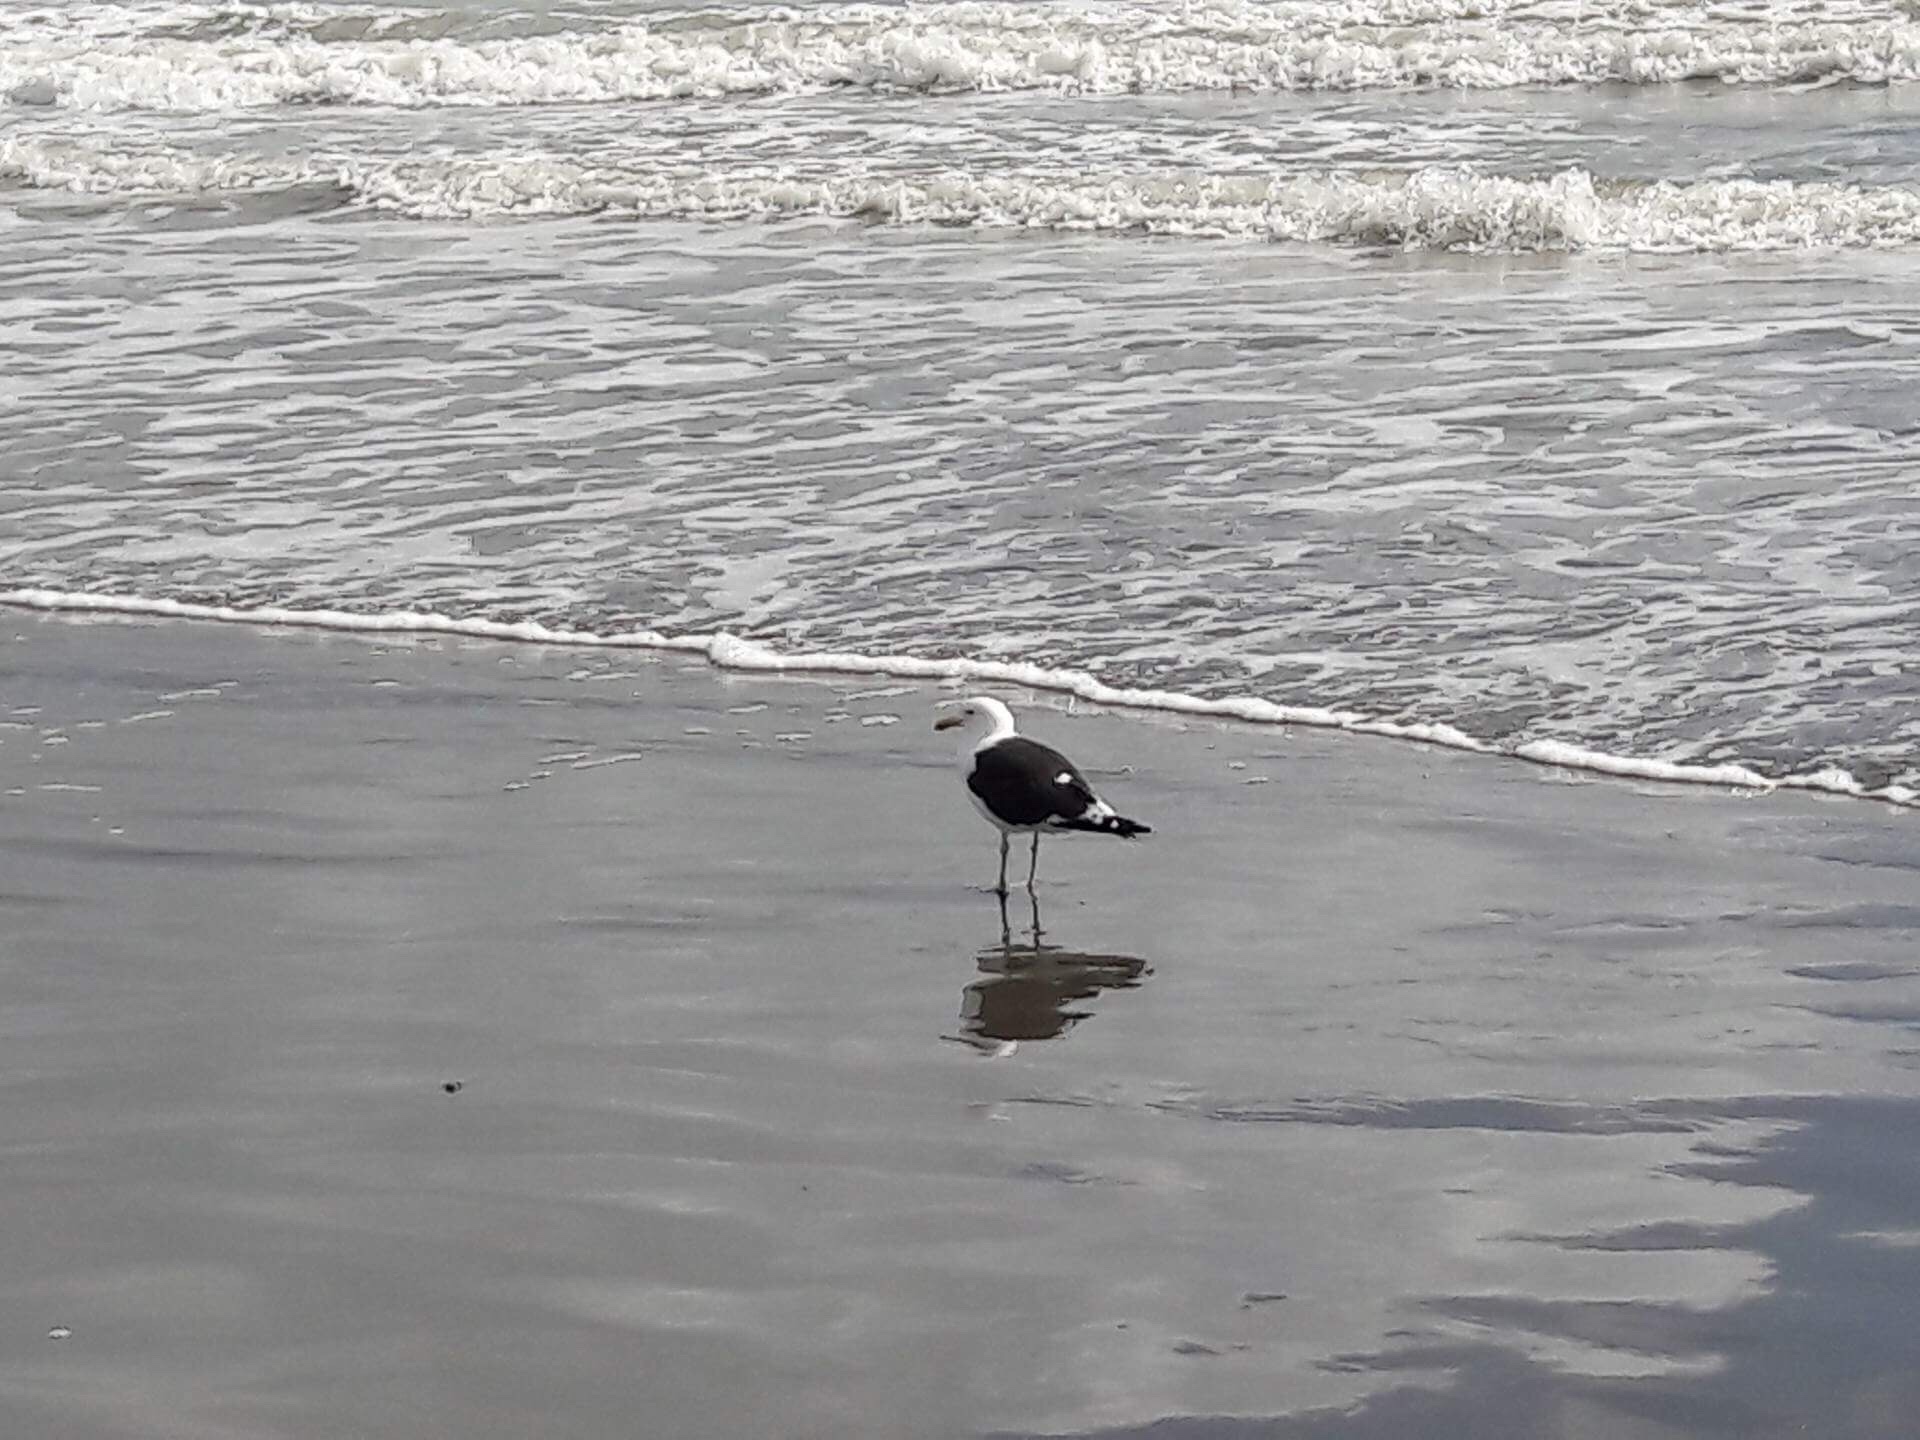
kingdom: Animalia
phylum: Chordata
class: Aves
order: Charadriiformes
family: Laridae
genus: Larus
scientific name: Larus dominicanus
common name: Kelp gull
